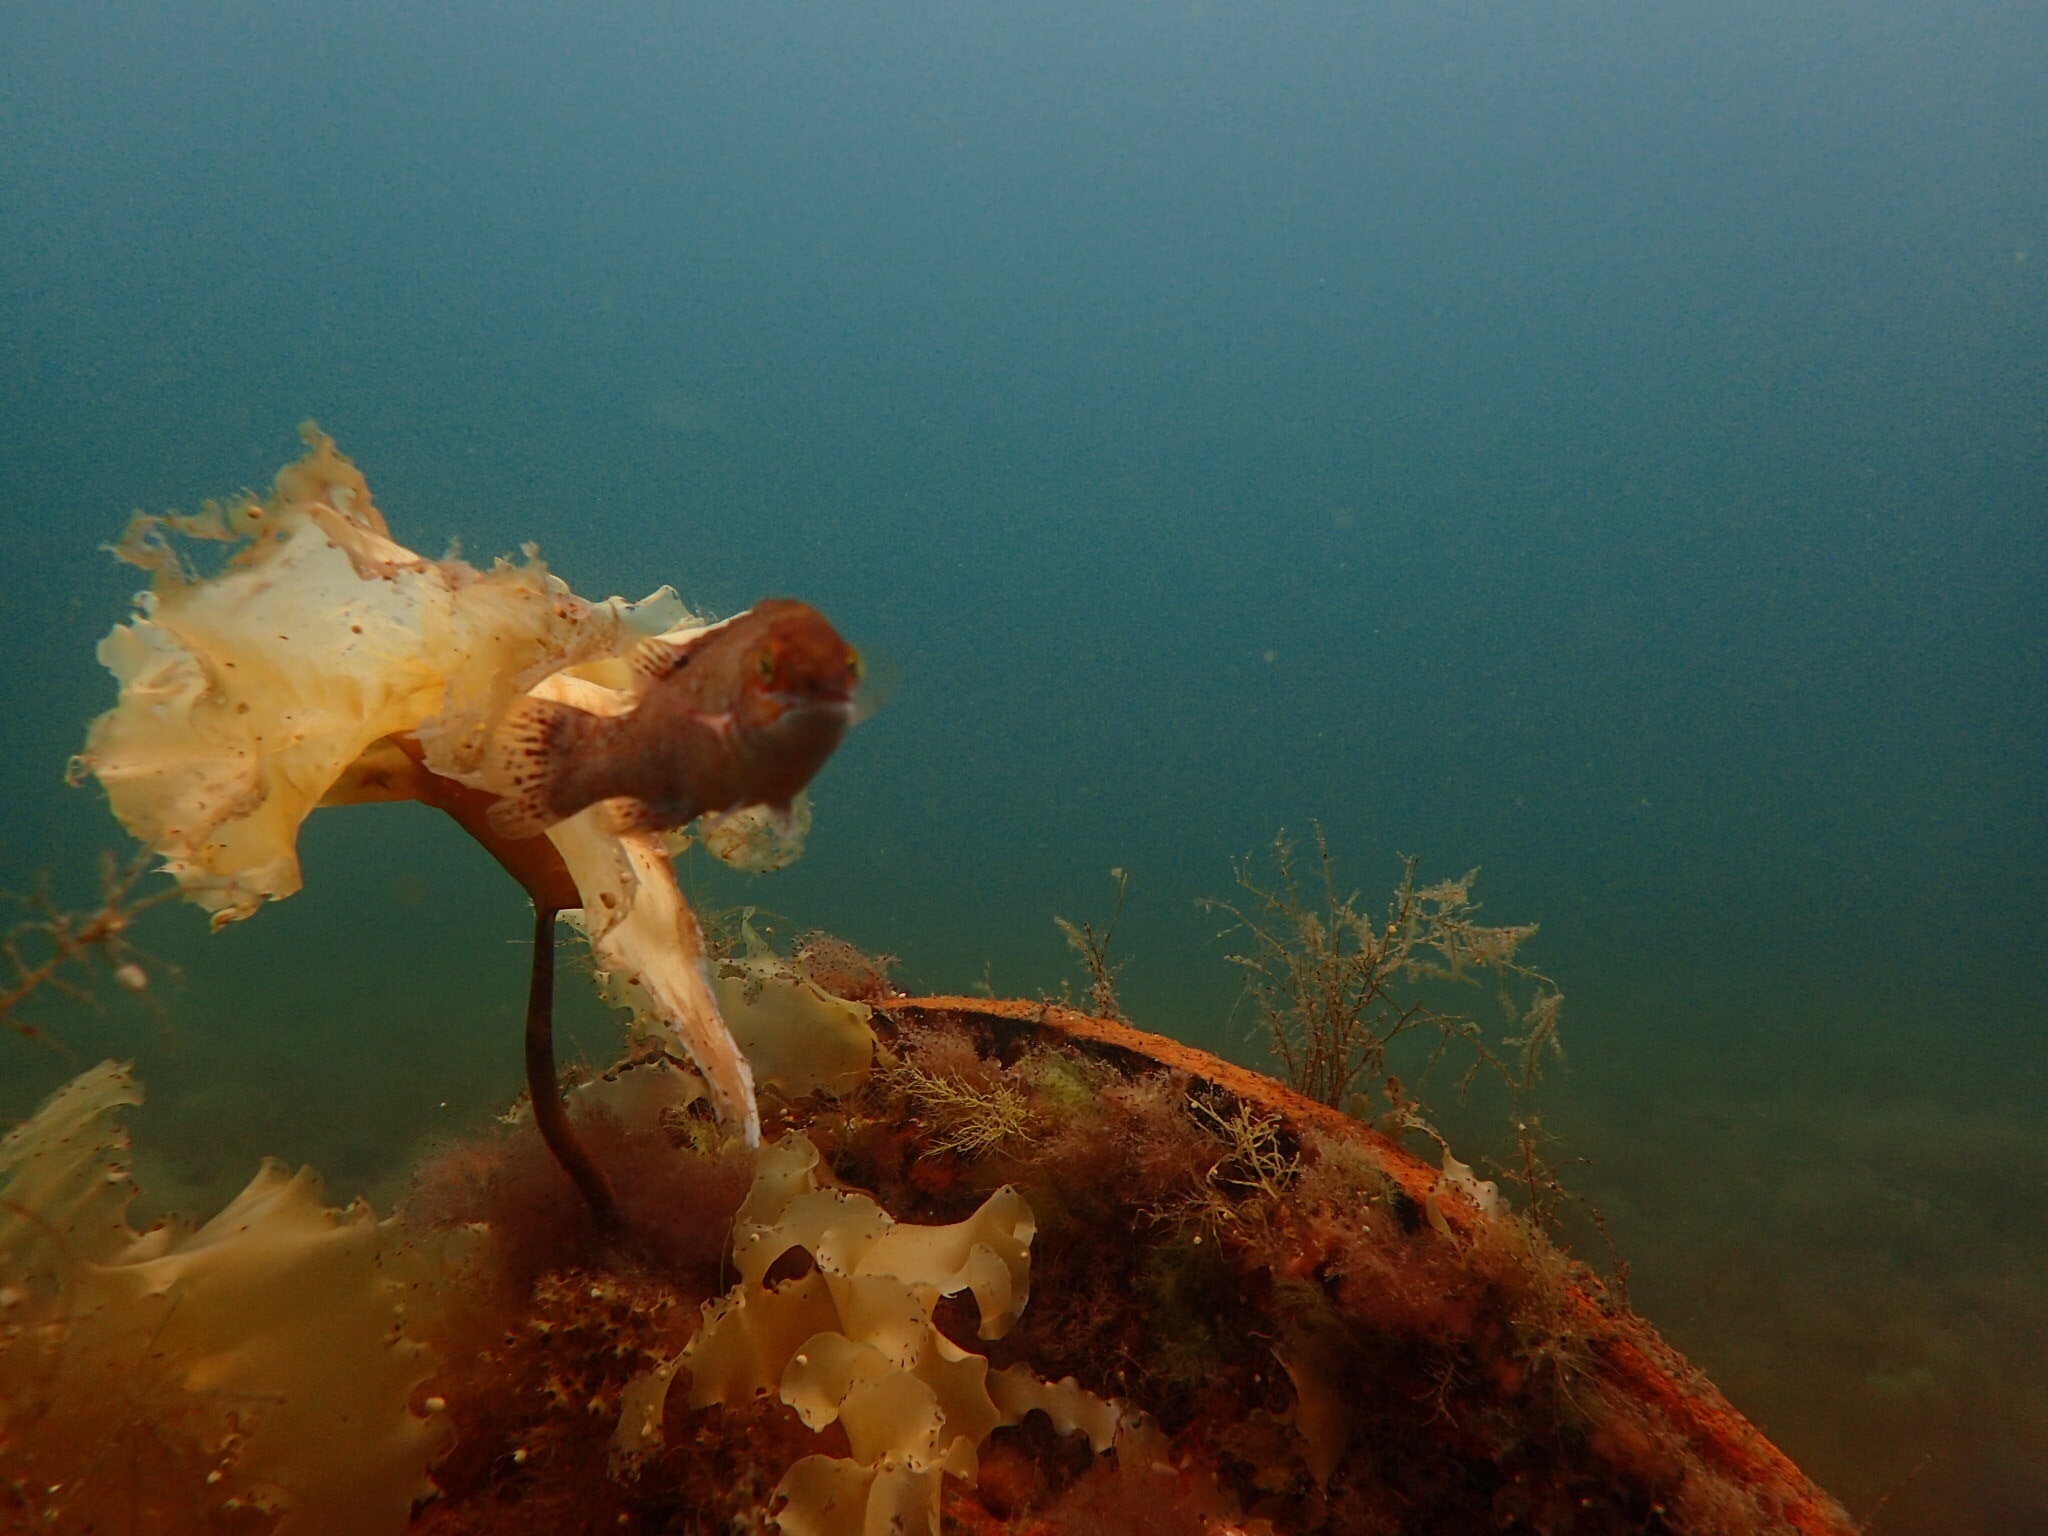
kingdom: Animalia
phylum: Chordata
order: Perciformes
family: Labridae
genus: Tautogolabrus
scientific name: Tautogolabrus adspersus
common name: Cunner
